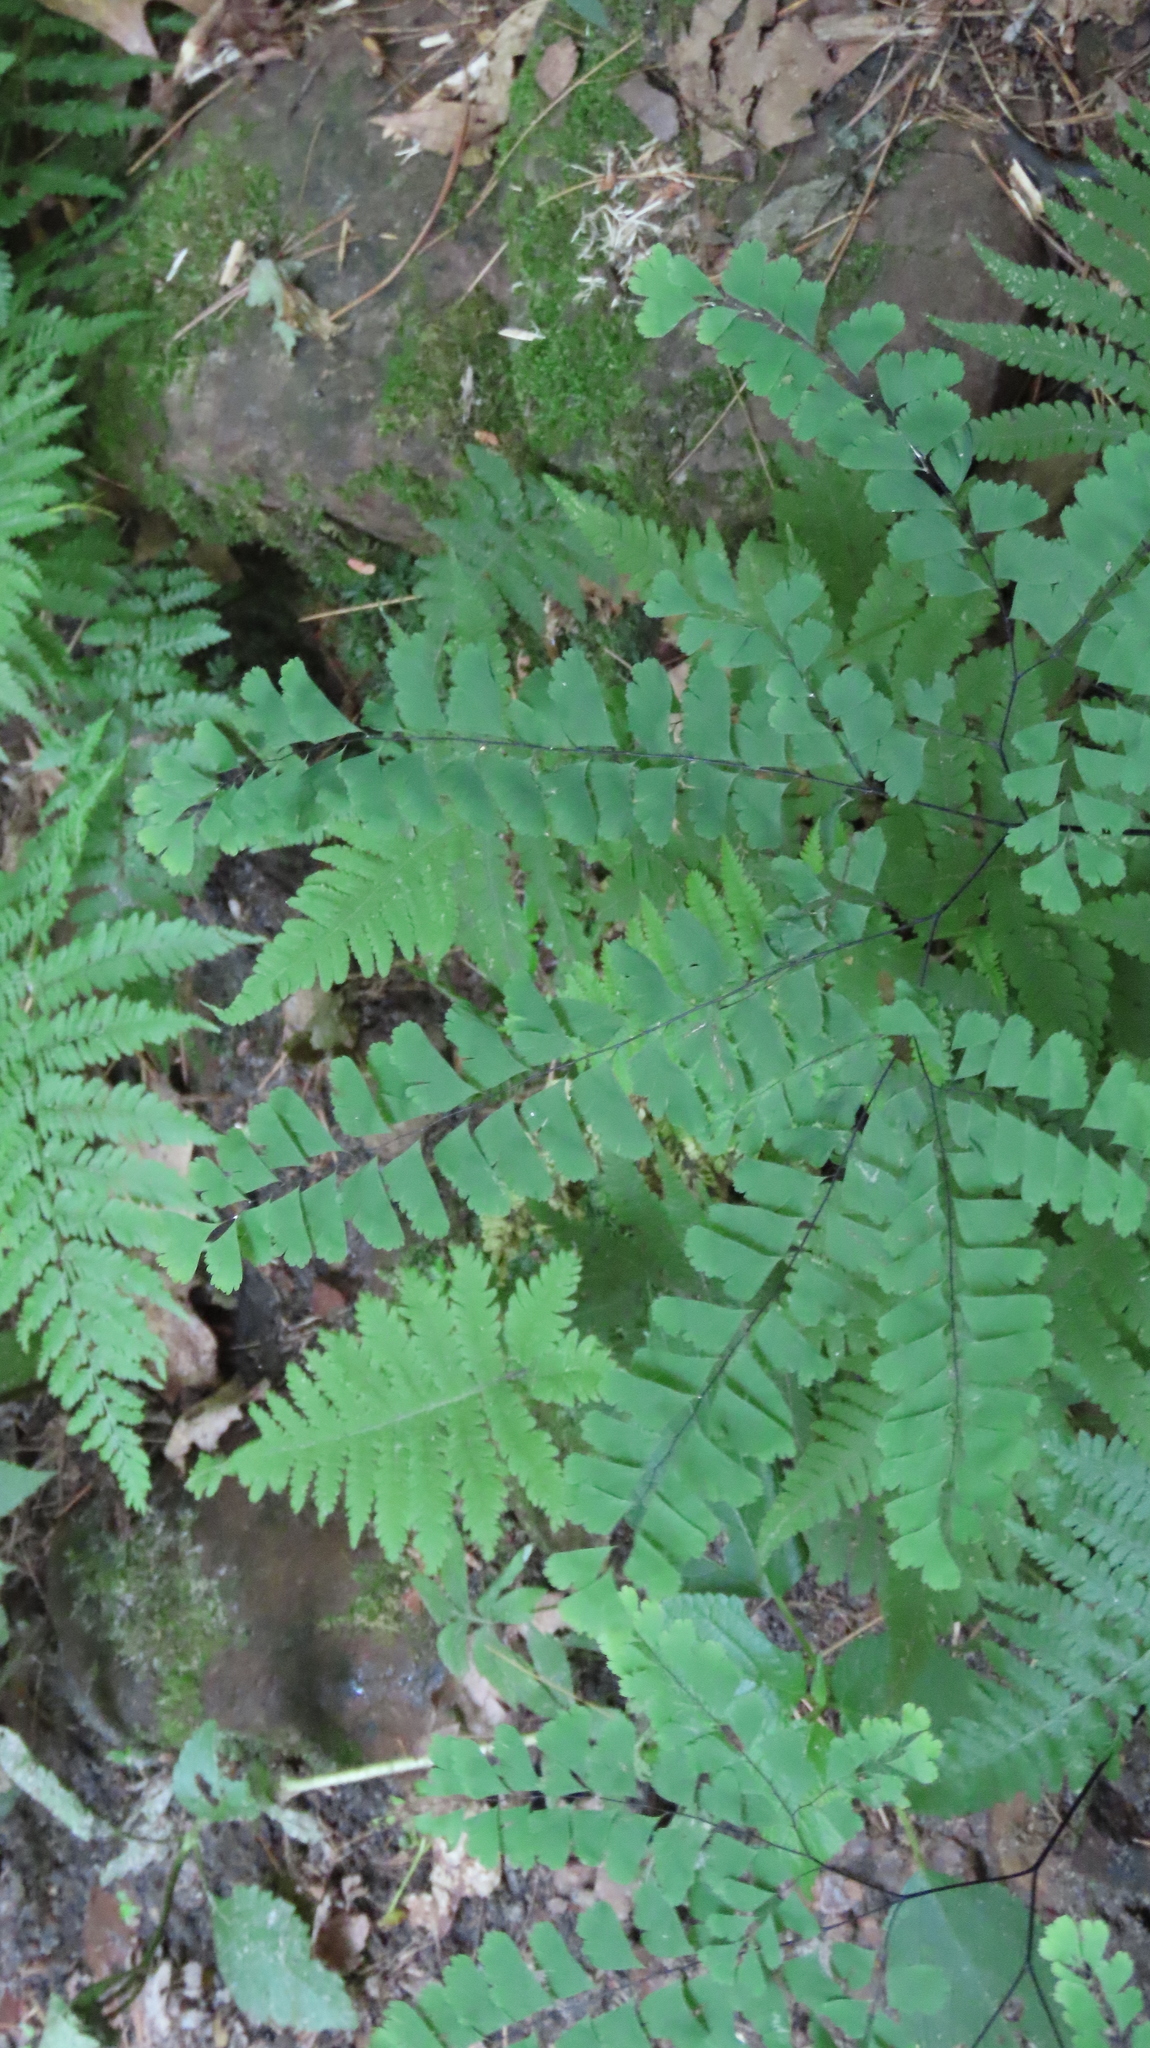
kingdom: Plantae
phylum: Tracheophyta
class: Polypodiopsida
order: Polypodiales
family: Pteridaceae
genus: Adiantum
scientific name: Adiantum pedatum
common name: Five-finger fern
